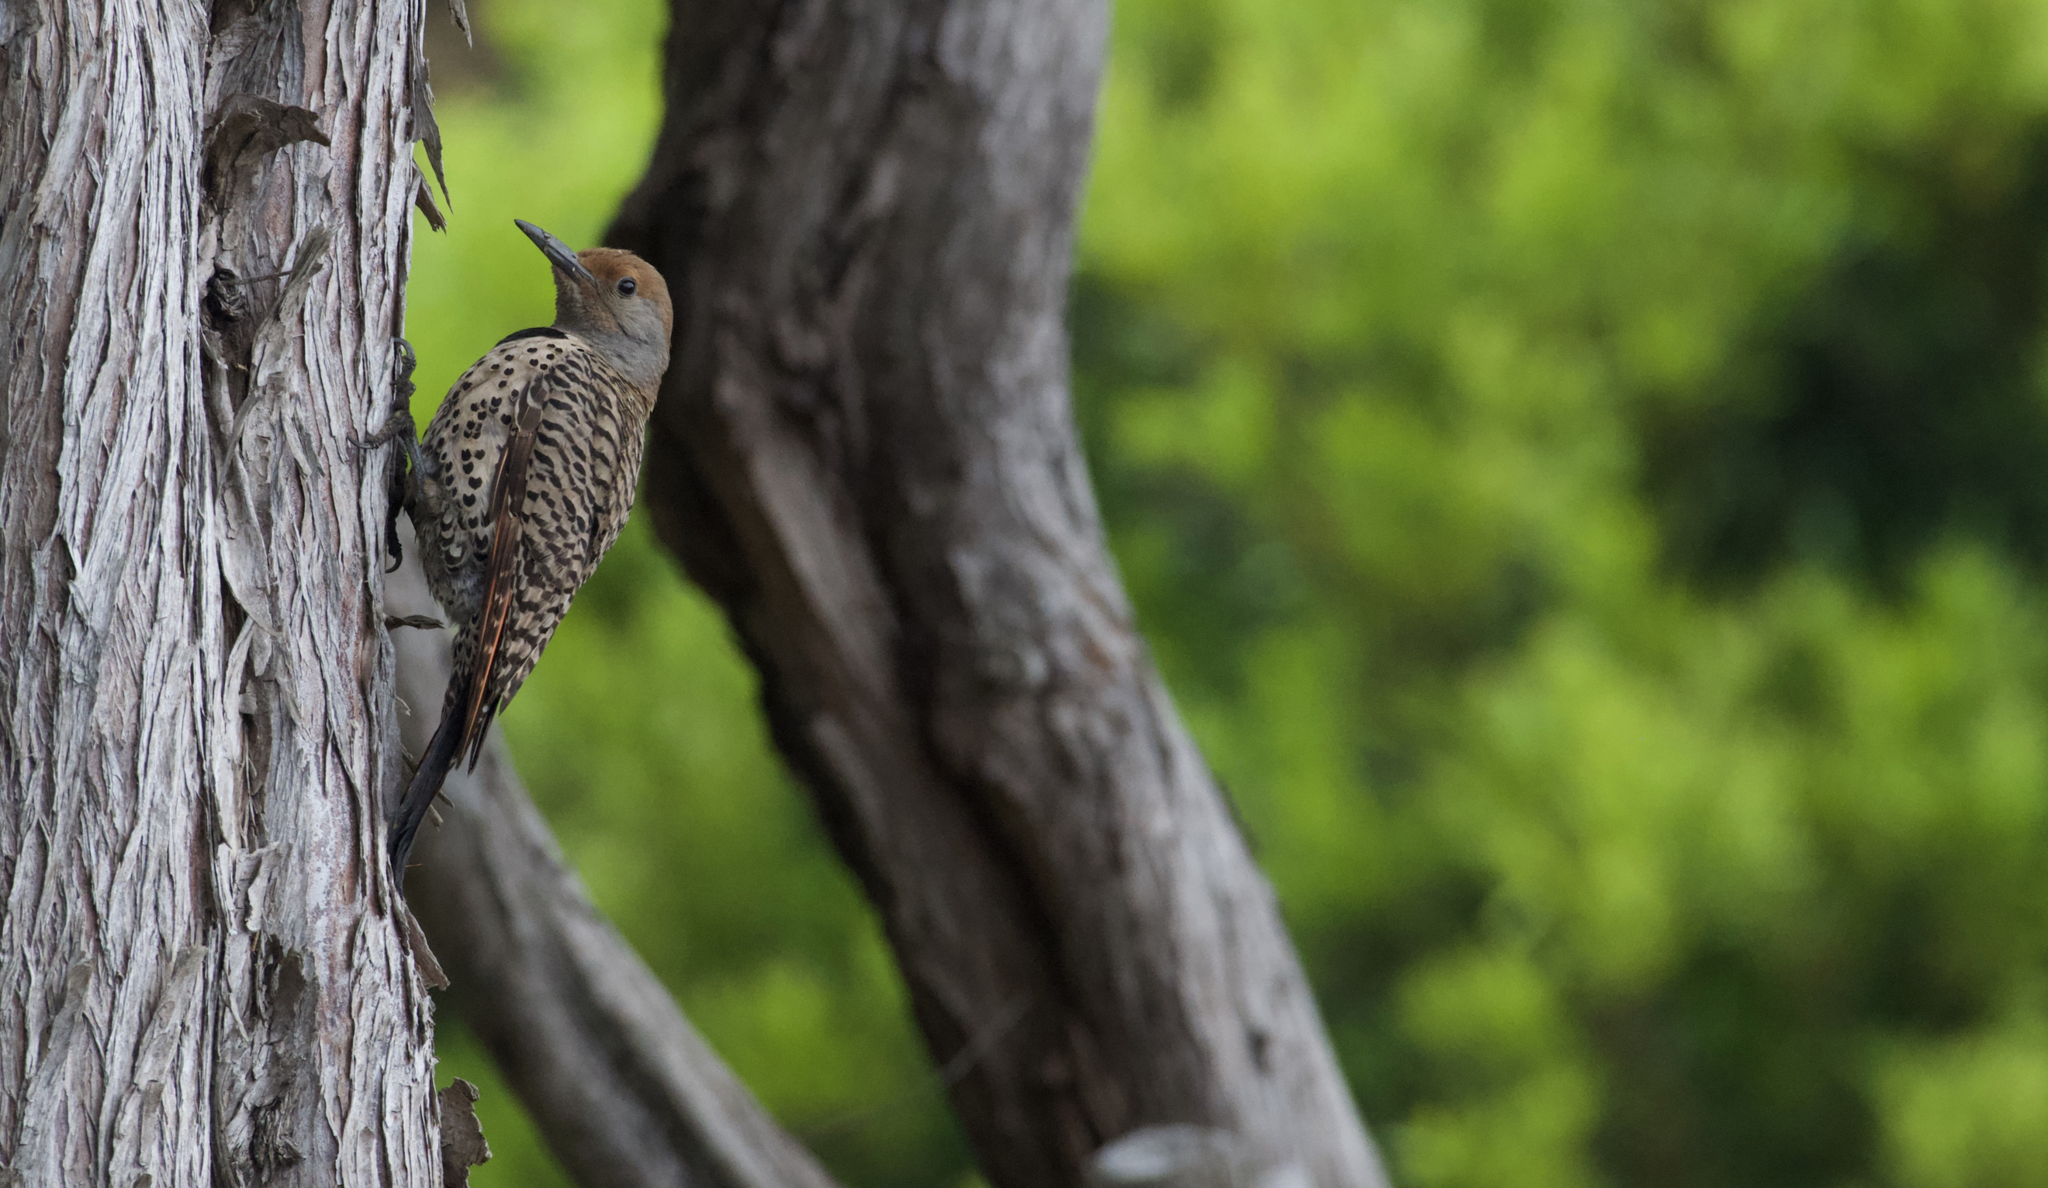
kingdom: Animalia
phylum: Chordata
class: Aves
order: Piciformes
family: Picidae
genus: Colaptes
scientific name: Colaptes auratus
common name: Northern flicker
